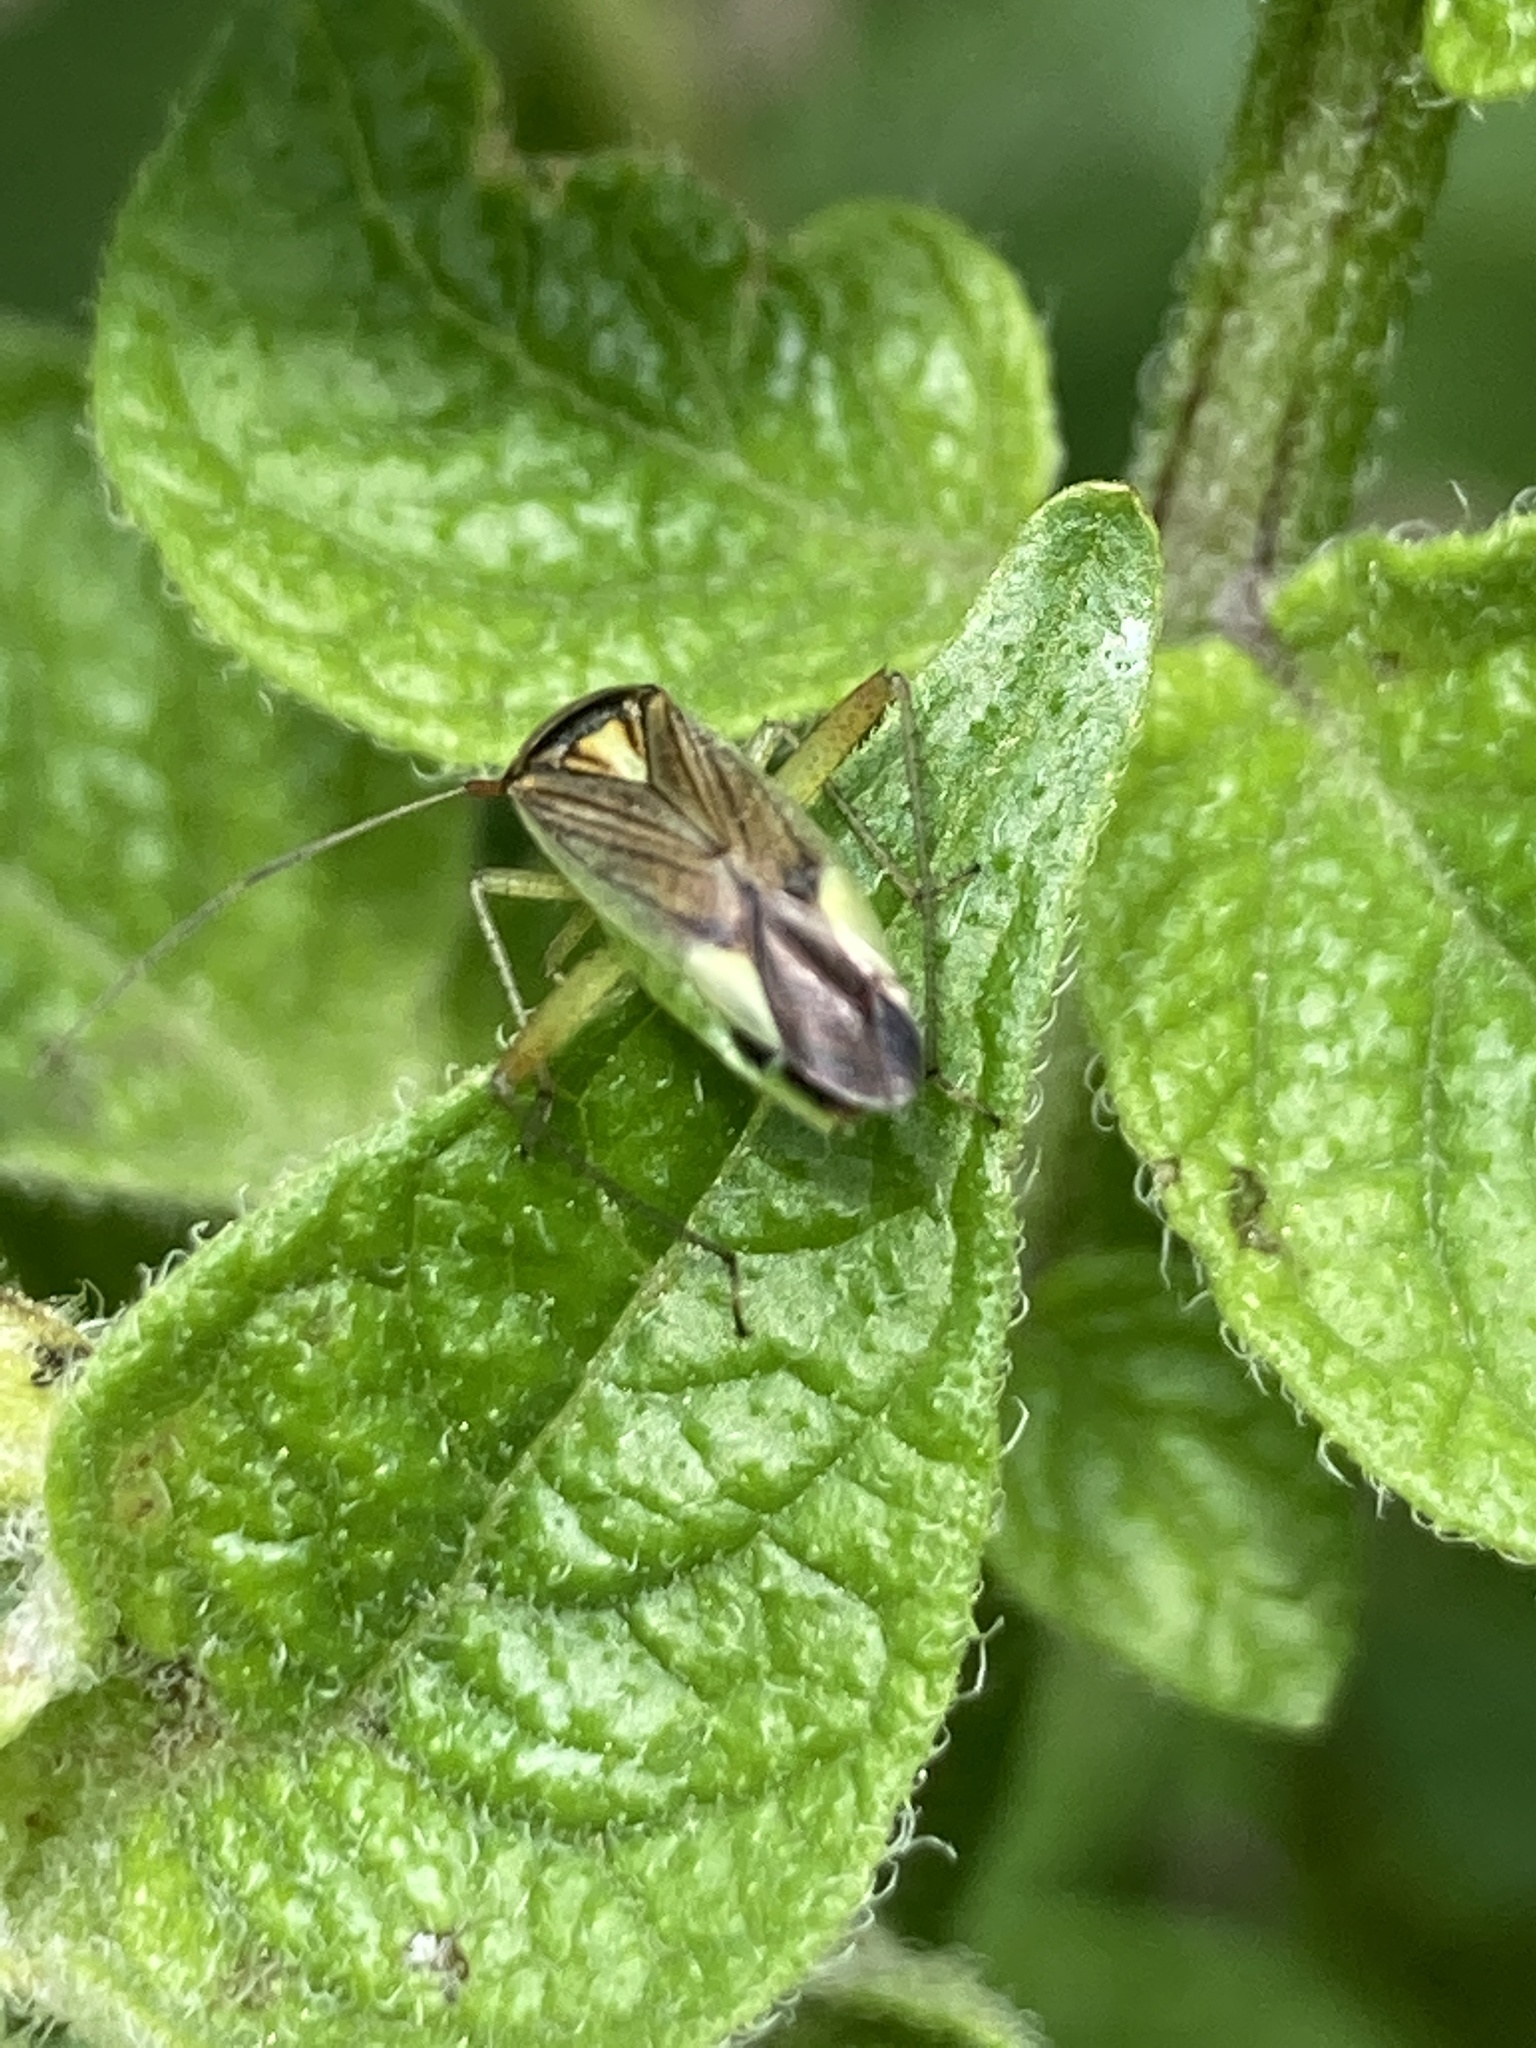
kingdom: Animalia
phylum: Arthropoda
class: Insecta
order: Hemiptera
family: Miridae
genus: Closterotomus
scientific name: Closterotomus trivialis
